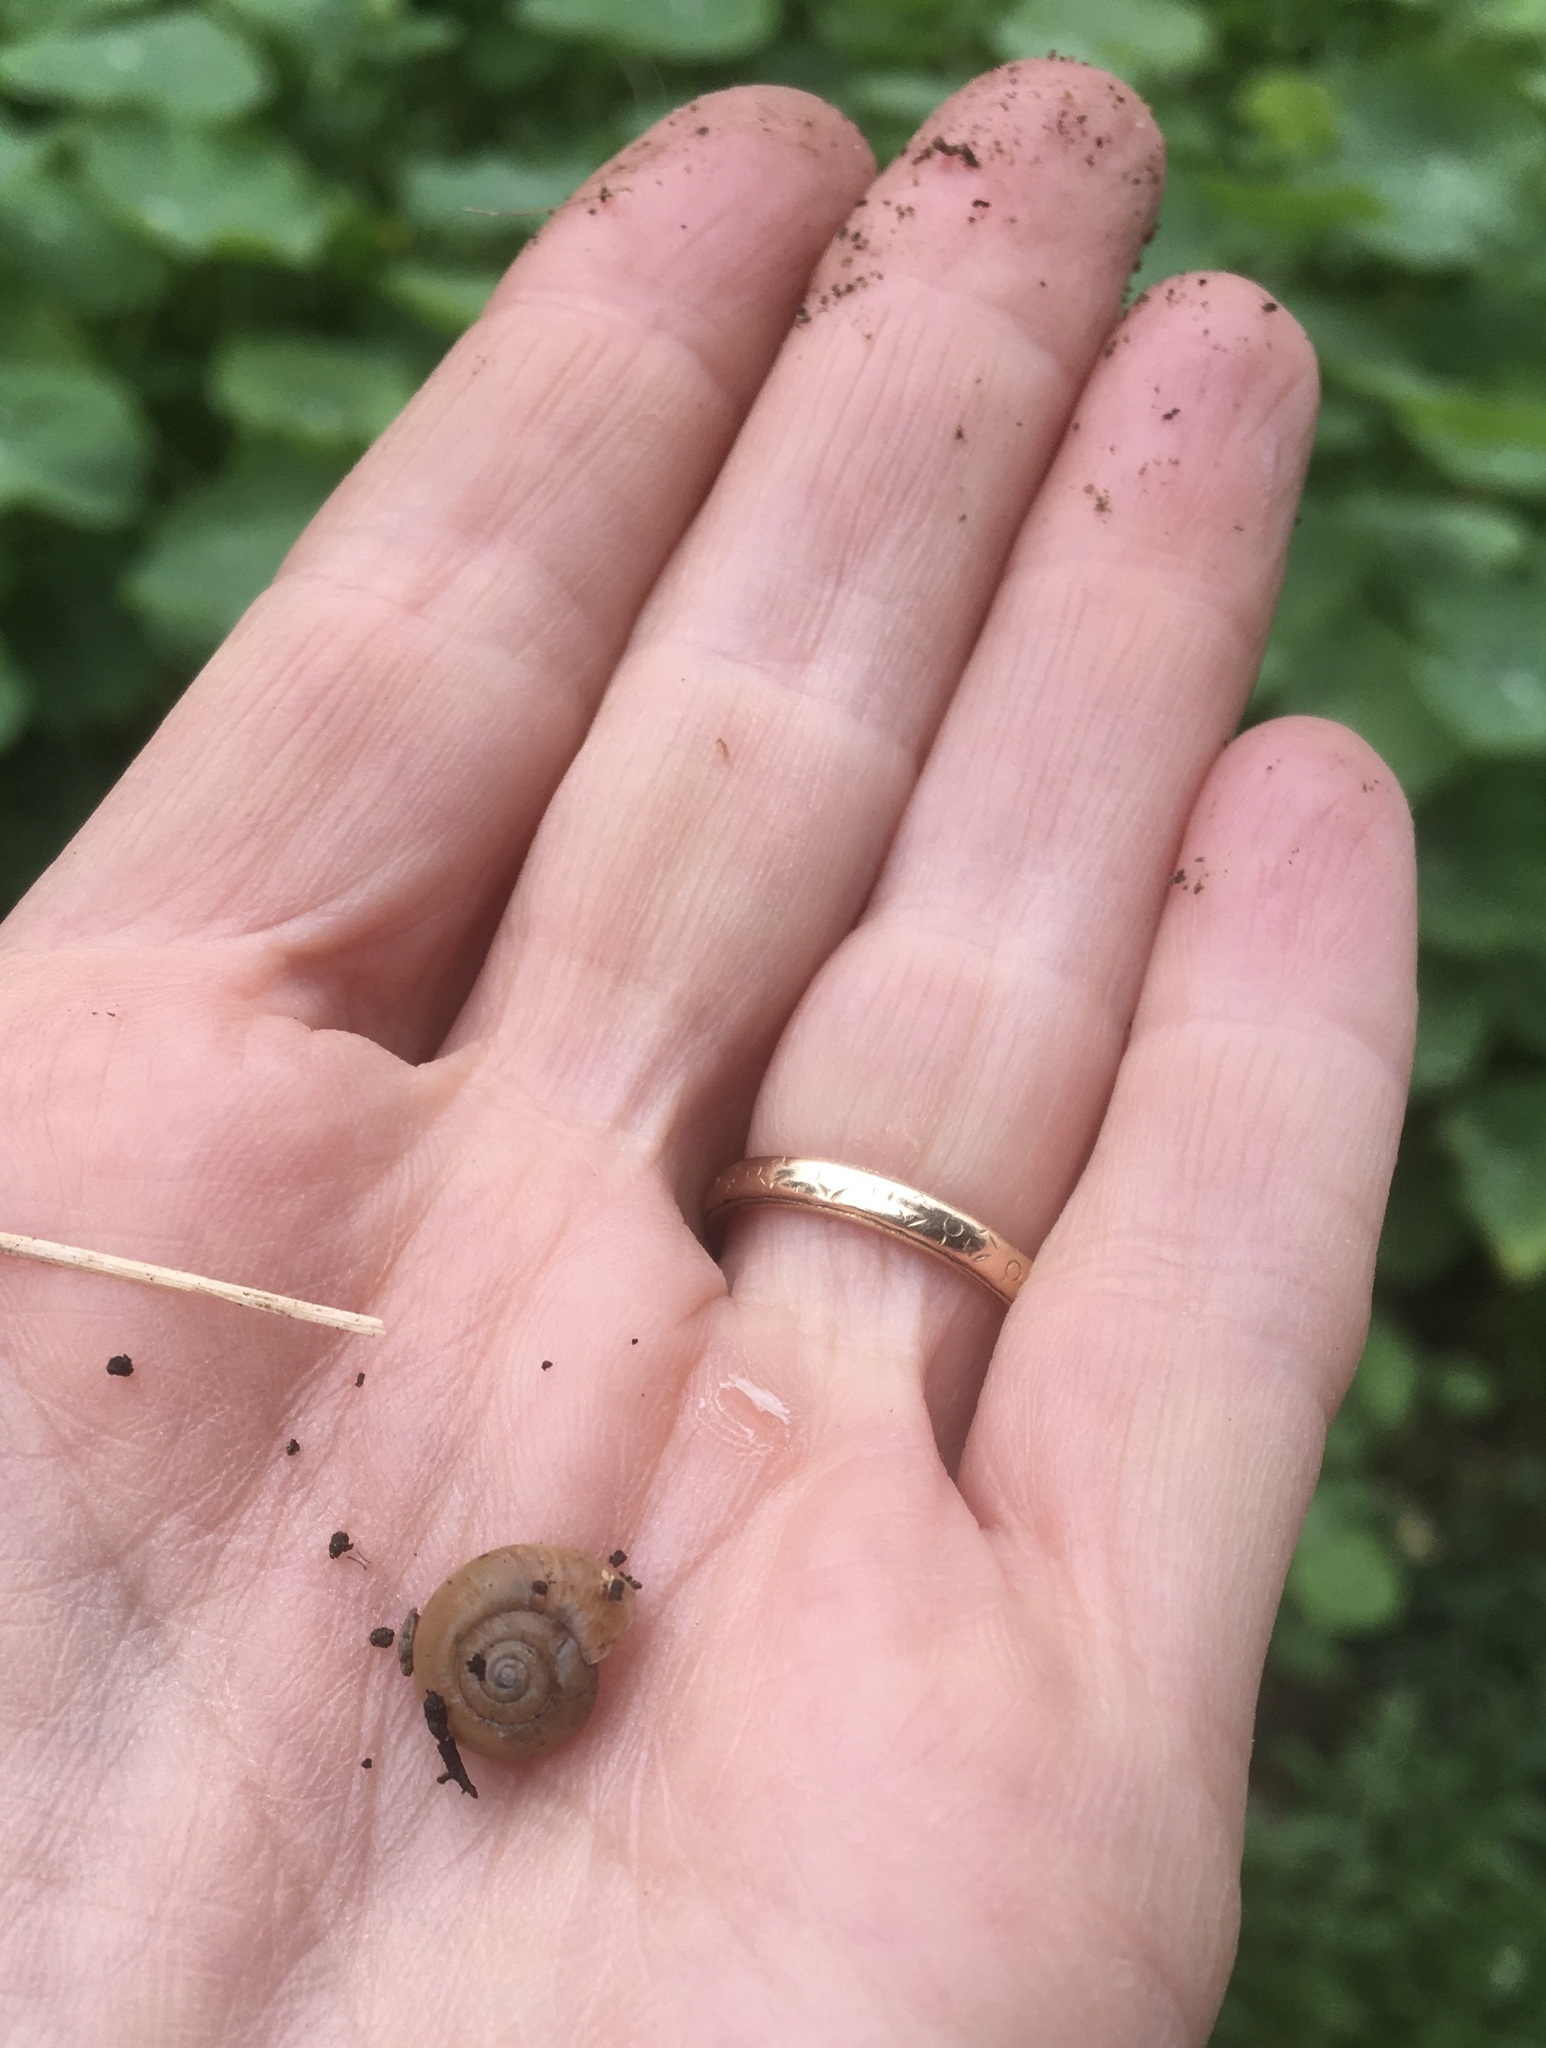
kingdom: Animalia
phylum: Mollusca
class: Gastropoda
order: Stylommatophora
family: Oxychilidae
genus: Oxychilus
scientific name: Oxychilus draparnaudi
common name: Draparnaud's glass snail
